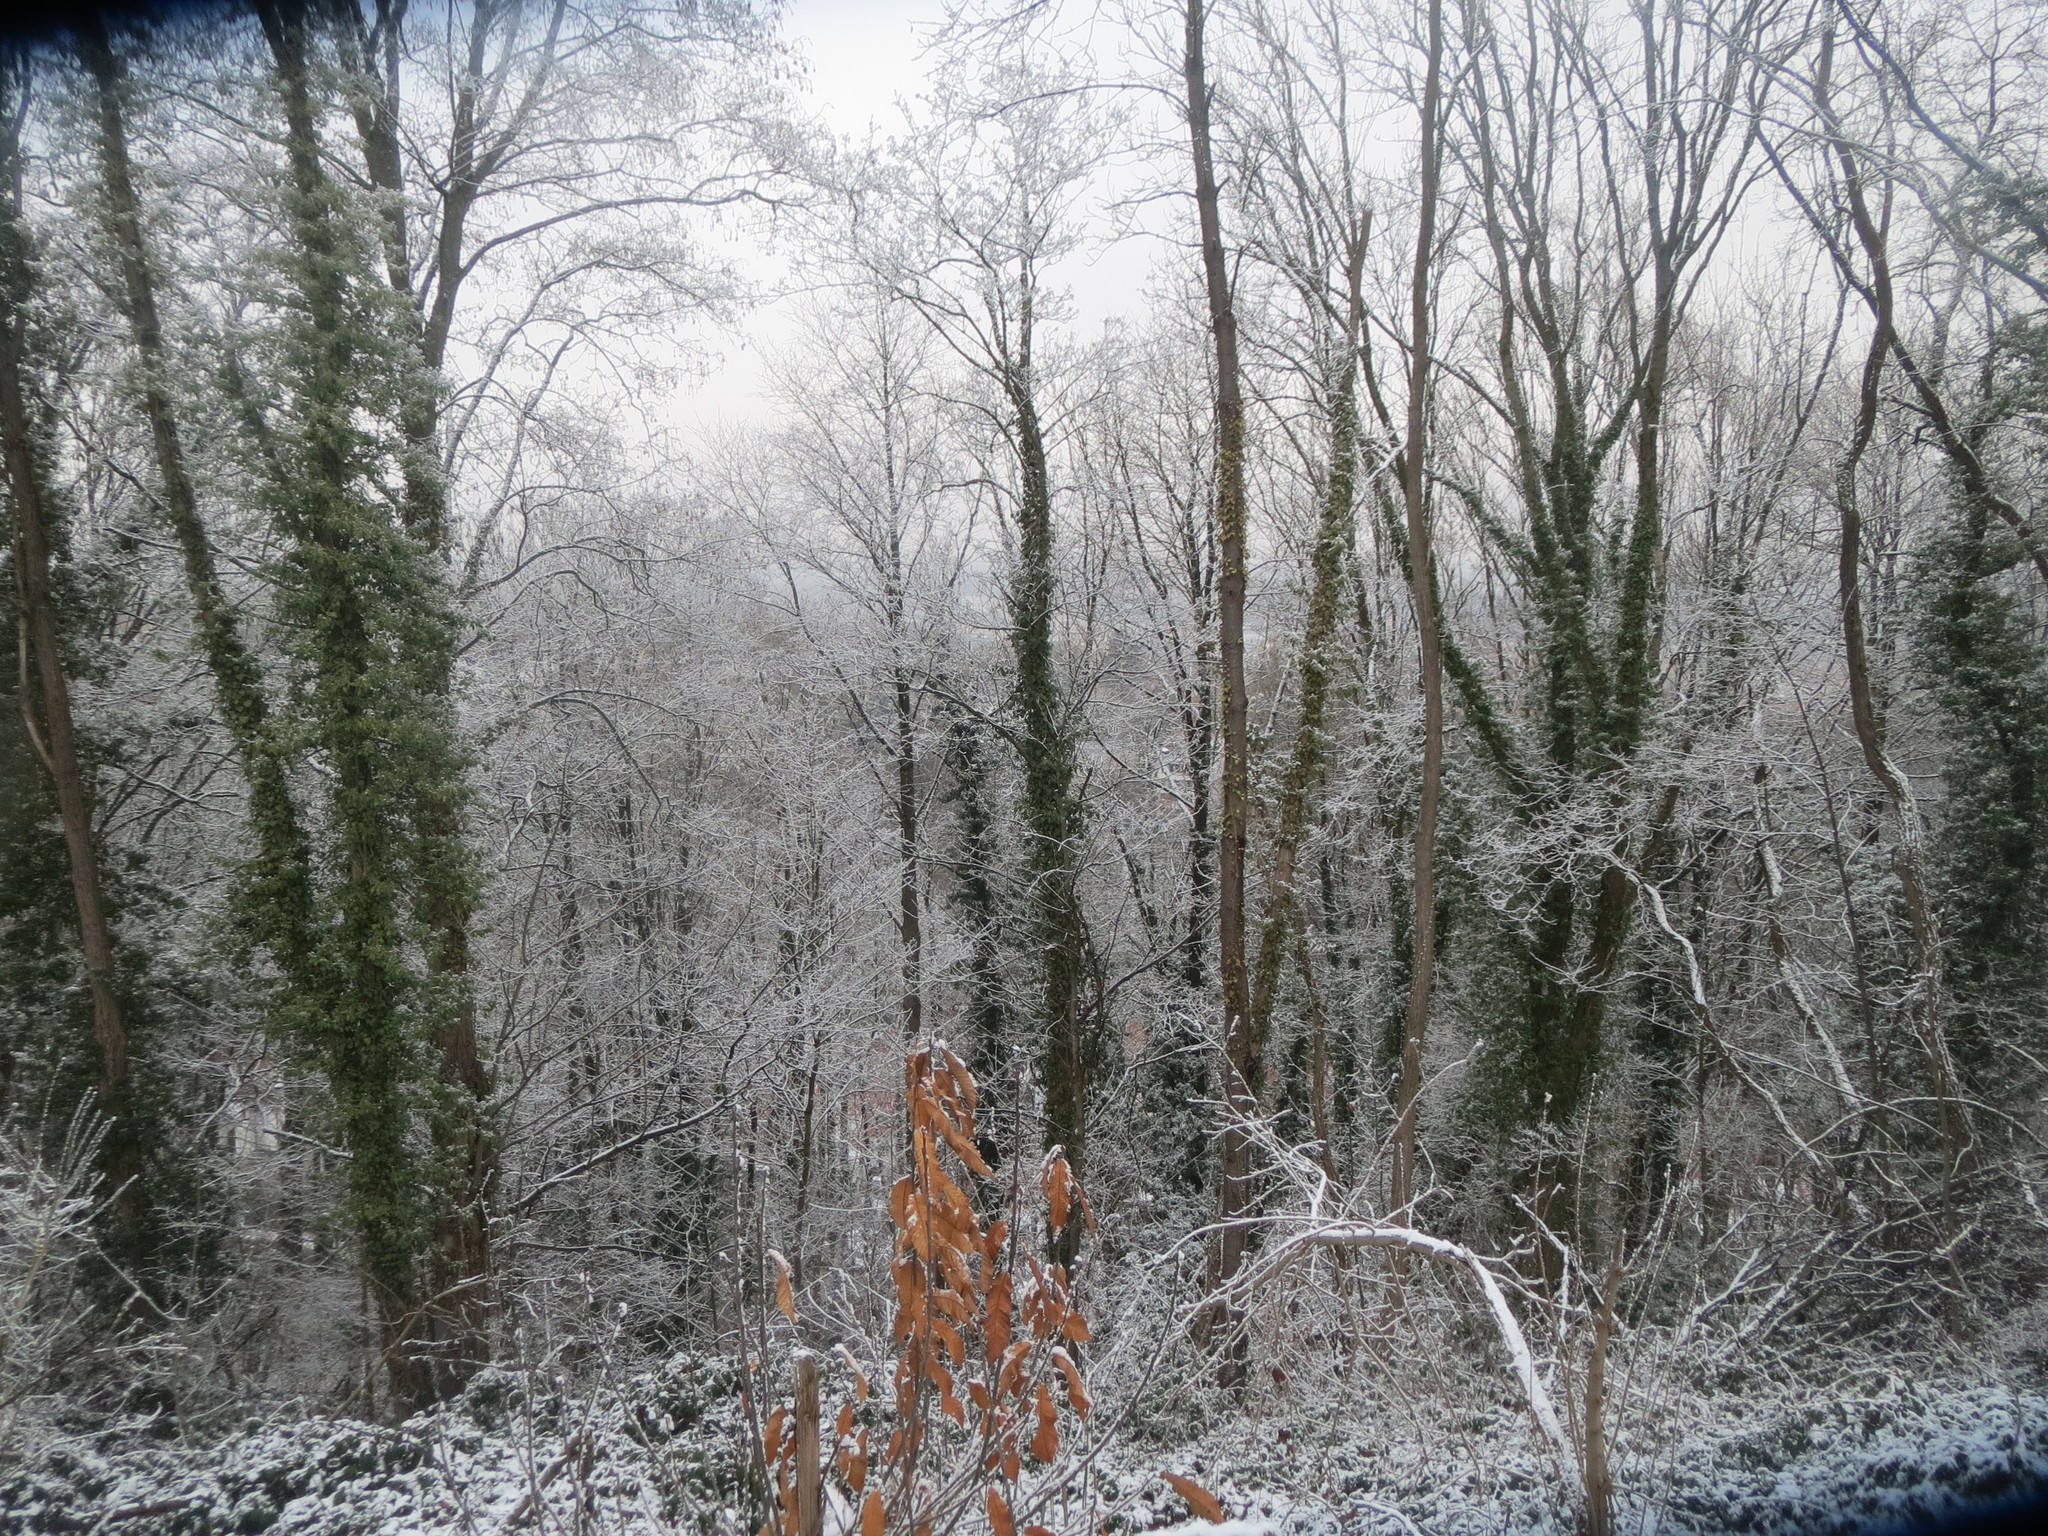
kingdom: Plantae
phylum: Tracheophyta
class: Magnoliopsida
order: Apiales
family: Araliaceae
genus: Hedera
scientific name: Hedera helix
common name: Ivy
